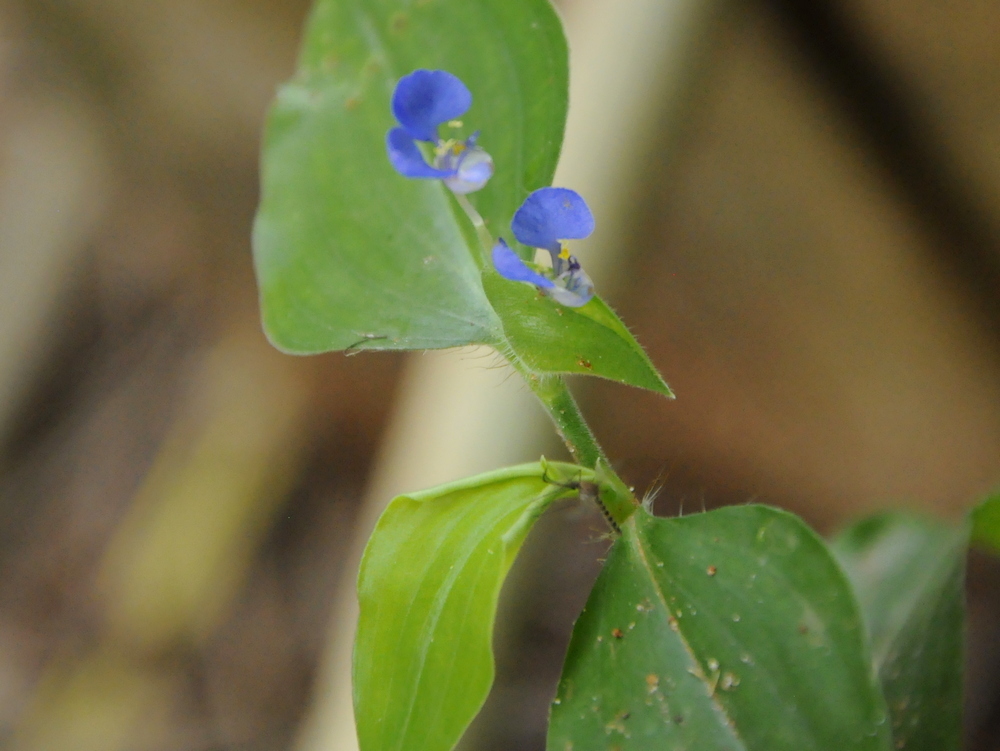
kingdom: Plantae
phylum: Tracheophyta
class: Liliopsida
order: Commelinales
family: Commelinaceae
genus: Commelina
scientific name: Commelina benghalensis
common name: Jio
